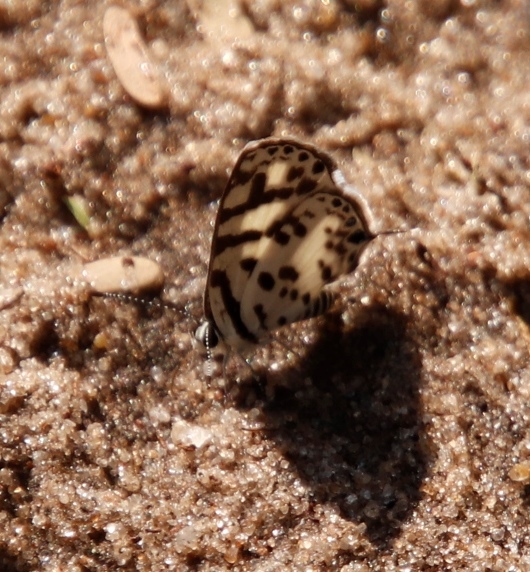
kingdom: Animalia
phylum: Arthropoda
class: Insecta
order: Lepidoptera
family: Lycaenidae
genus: Castalius
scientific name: Castalius melaena
